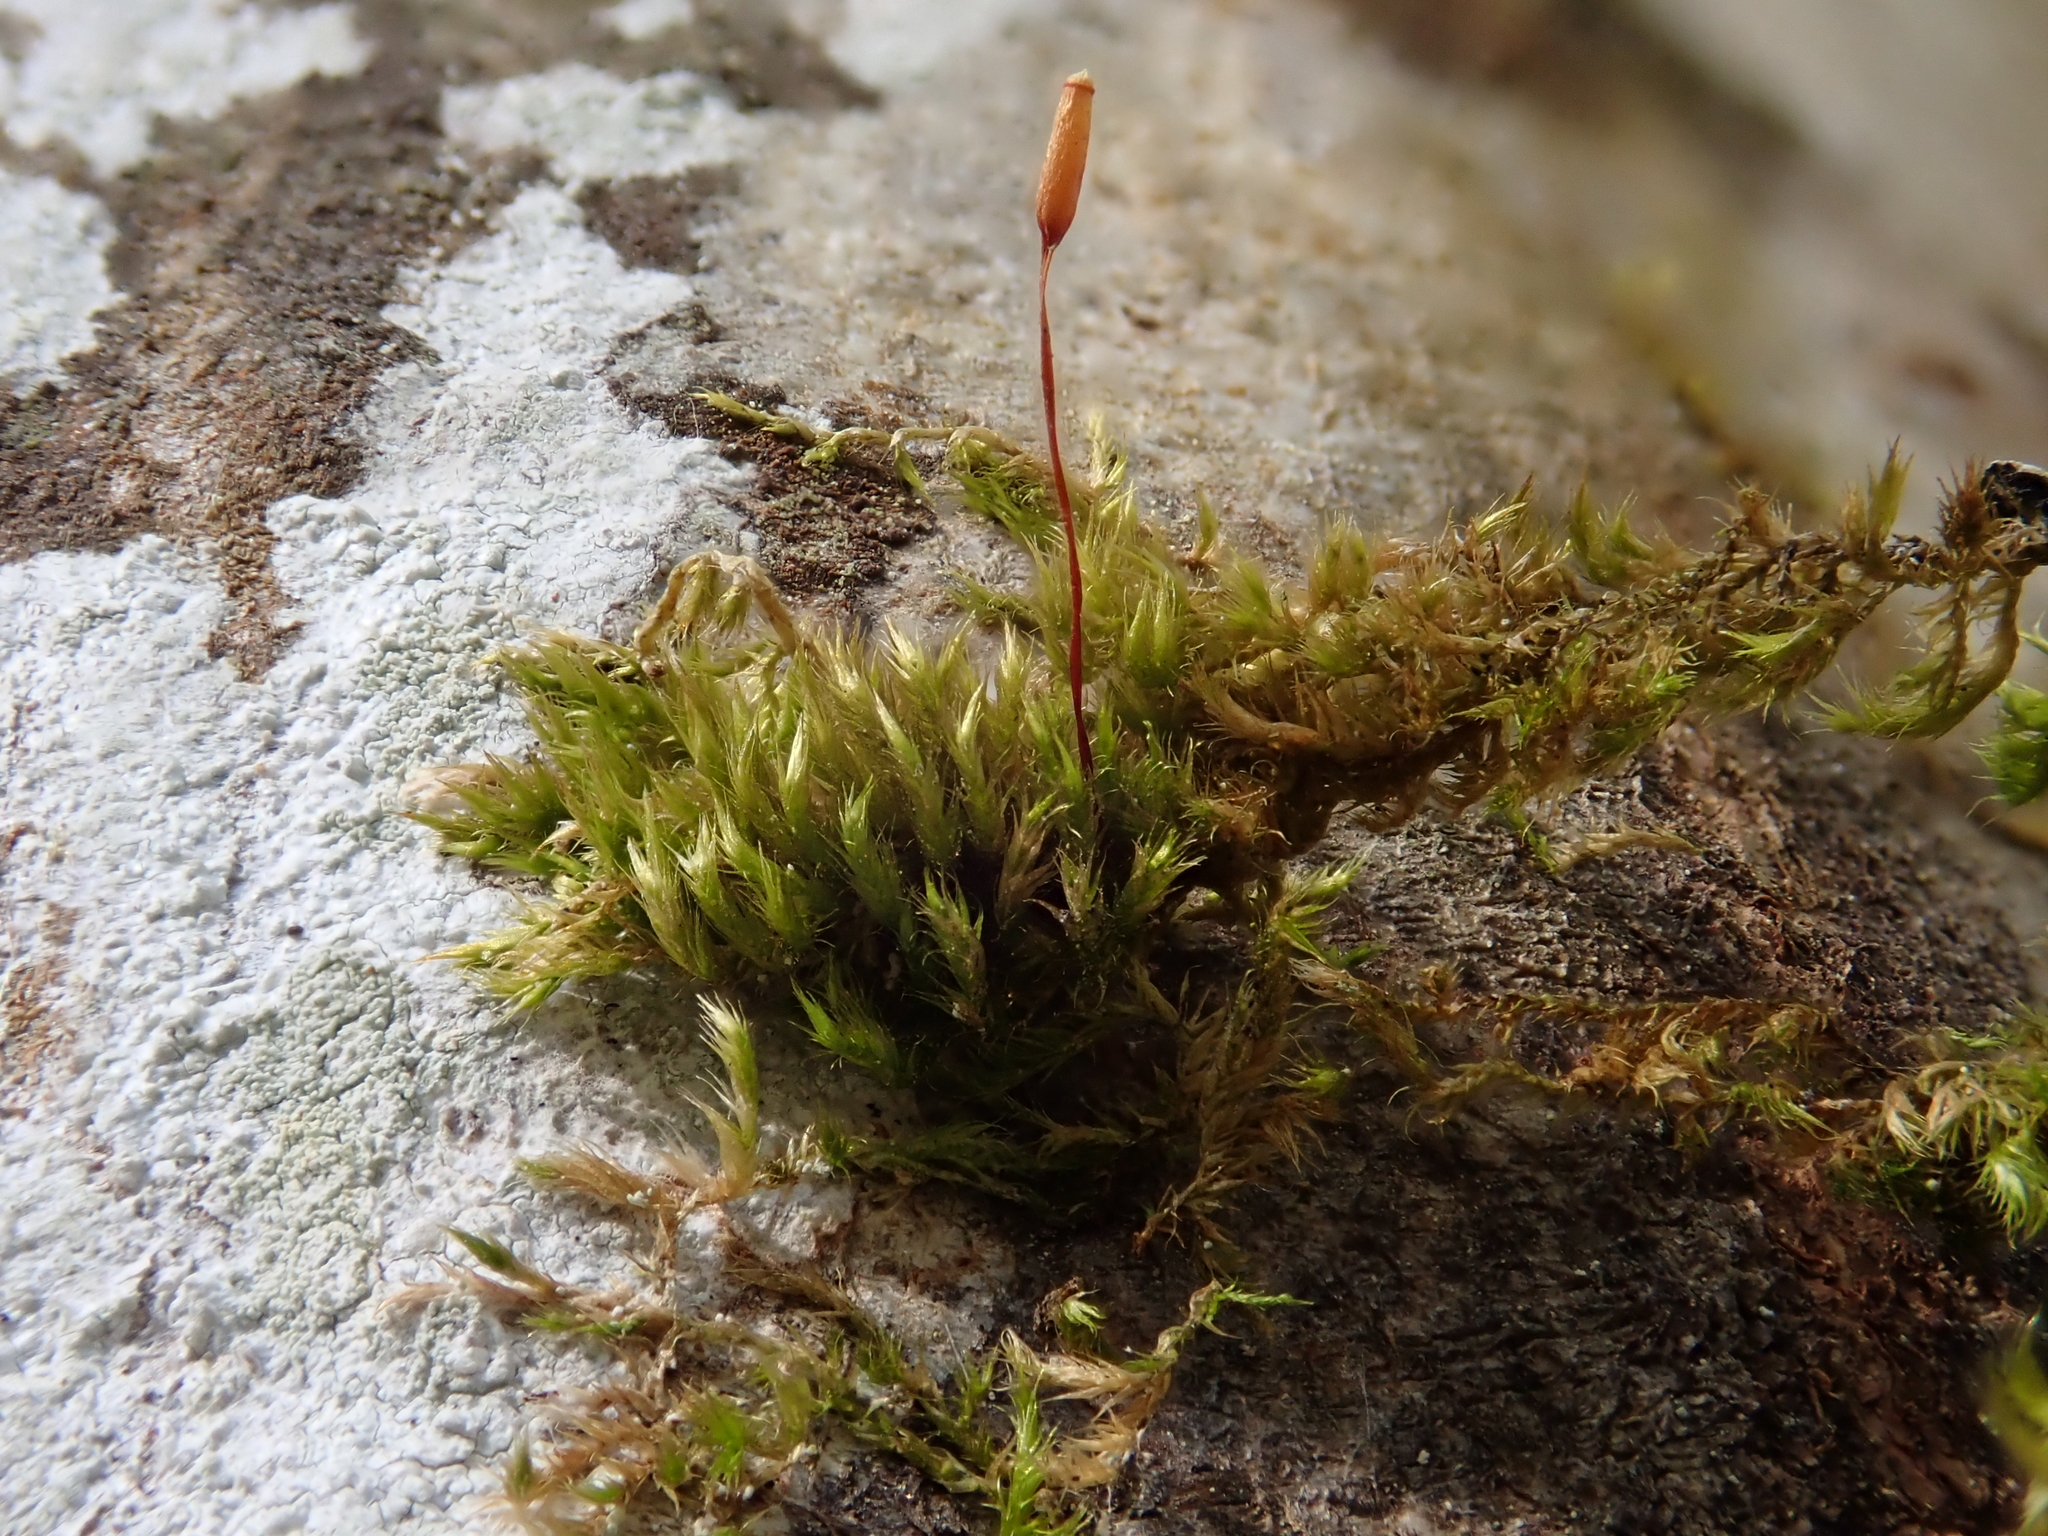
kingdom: Plantae
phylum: Bryophyta
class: Bryopsida
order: Hypnales
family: Pylaisiaceae
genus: Pylaisia
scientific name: Pylaisia polyantha
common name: Many-flowered leskea
